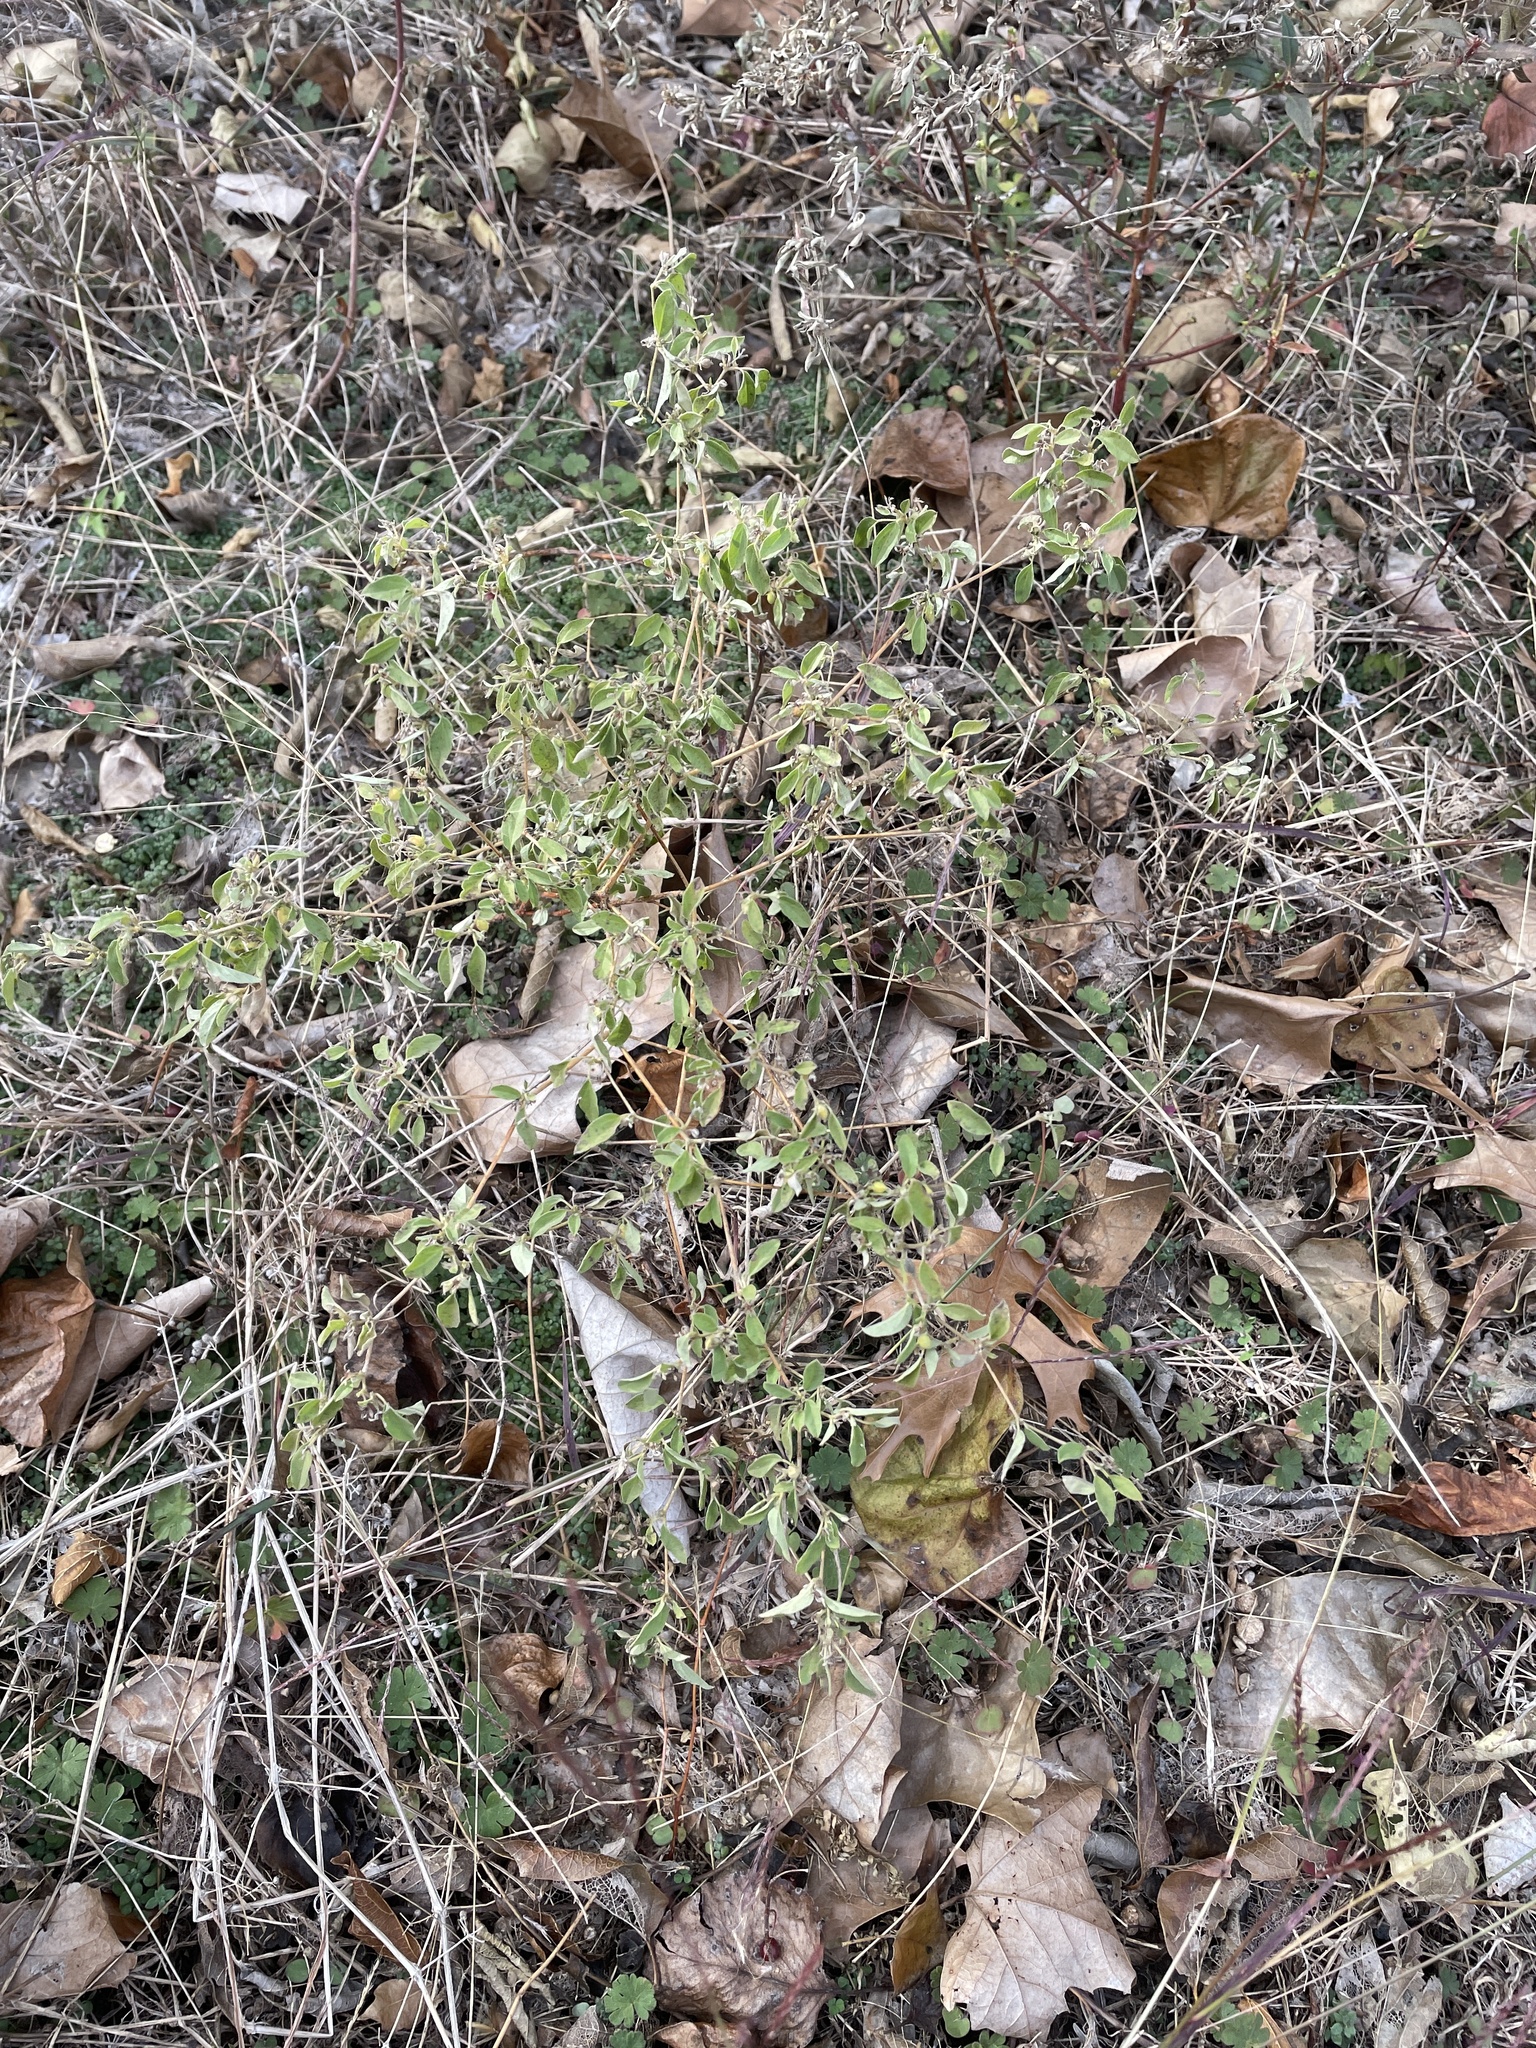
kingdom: Plantae
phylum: Tracheophyta
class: Magnoliopsida
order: Malpighiales
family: Euphorbiaceae
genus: Croton
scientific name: Croton monanthogynus
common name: One-seed croton
